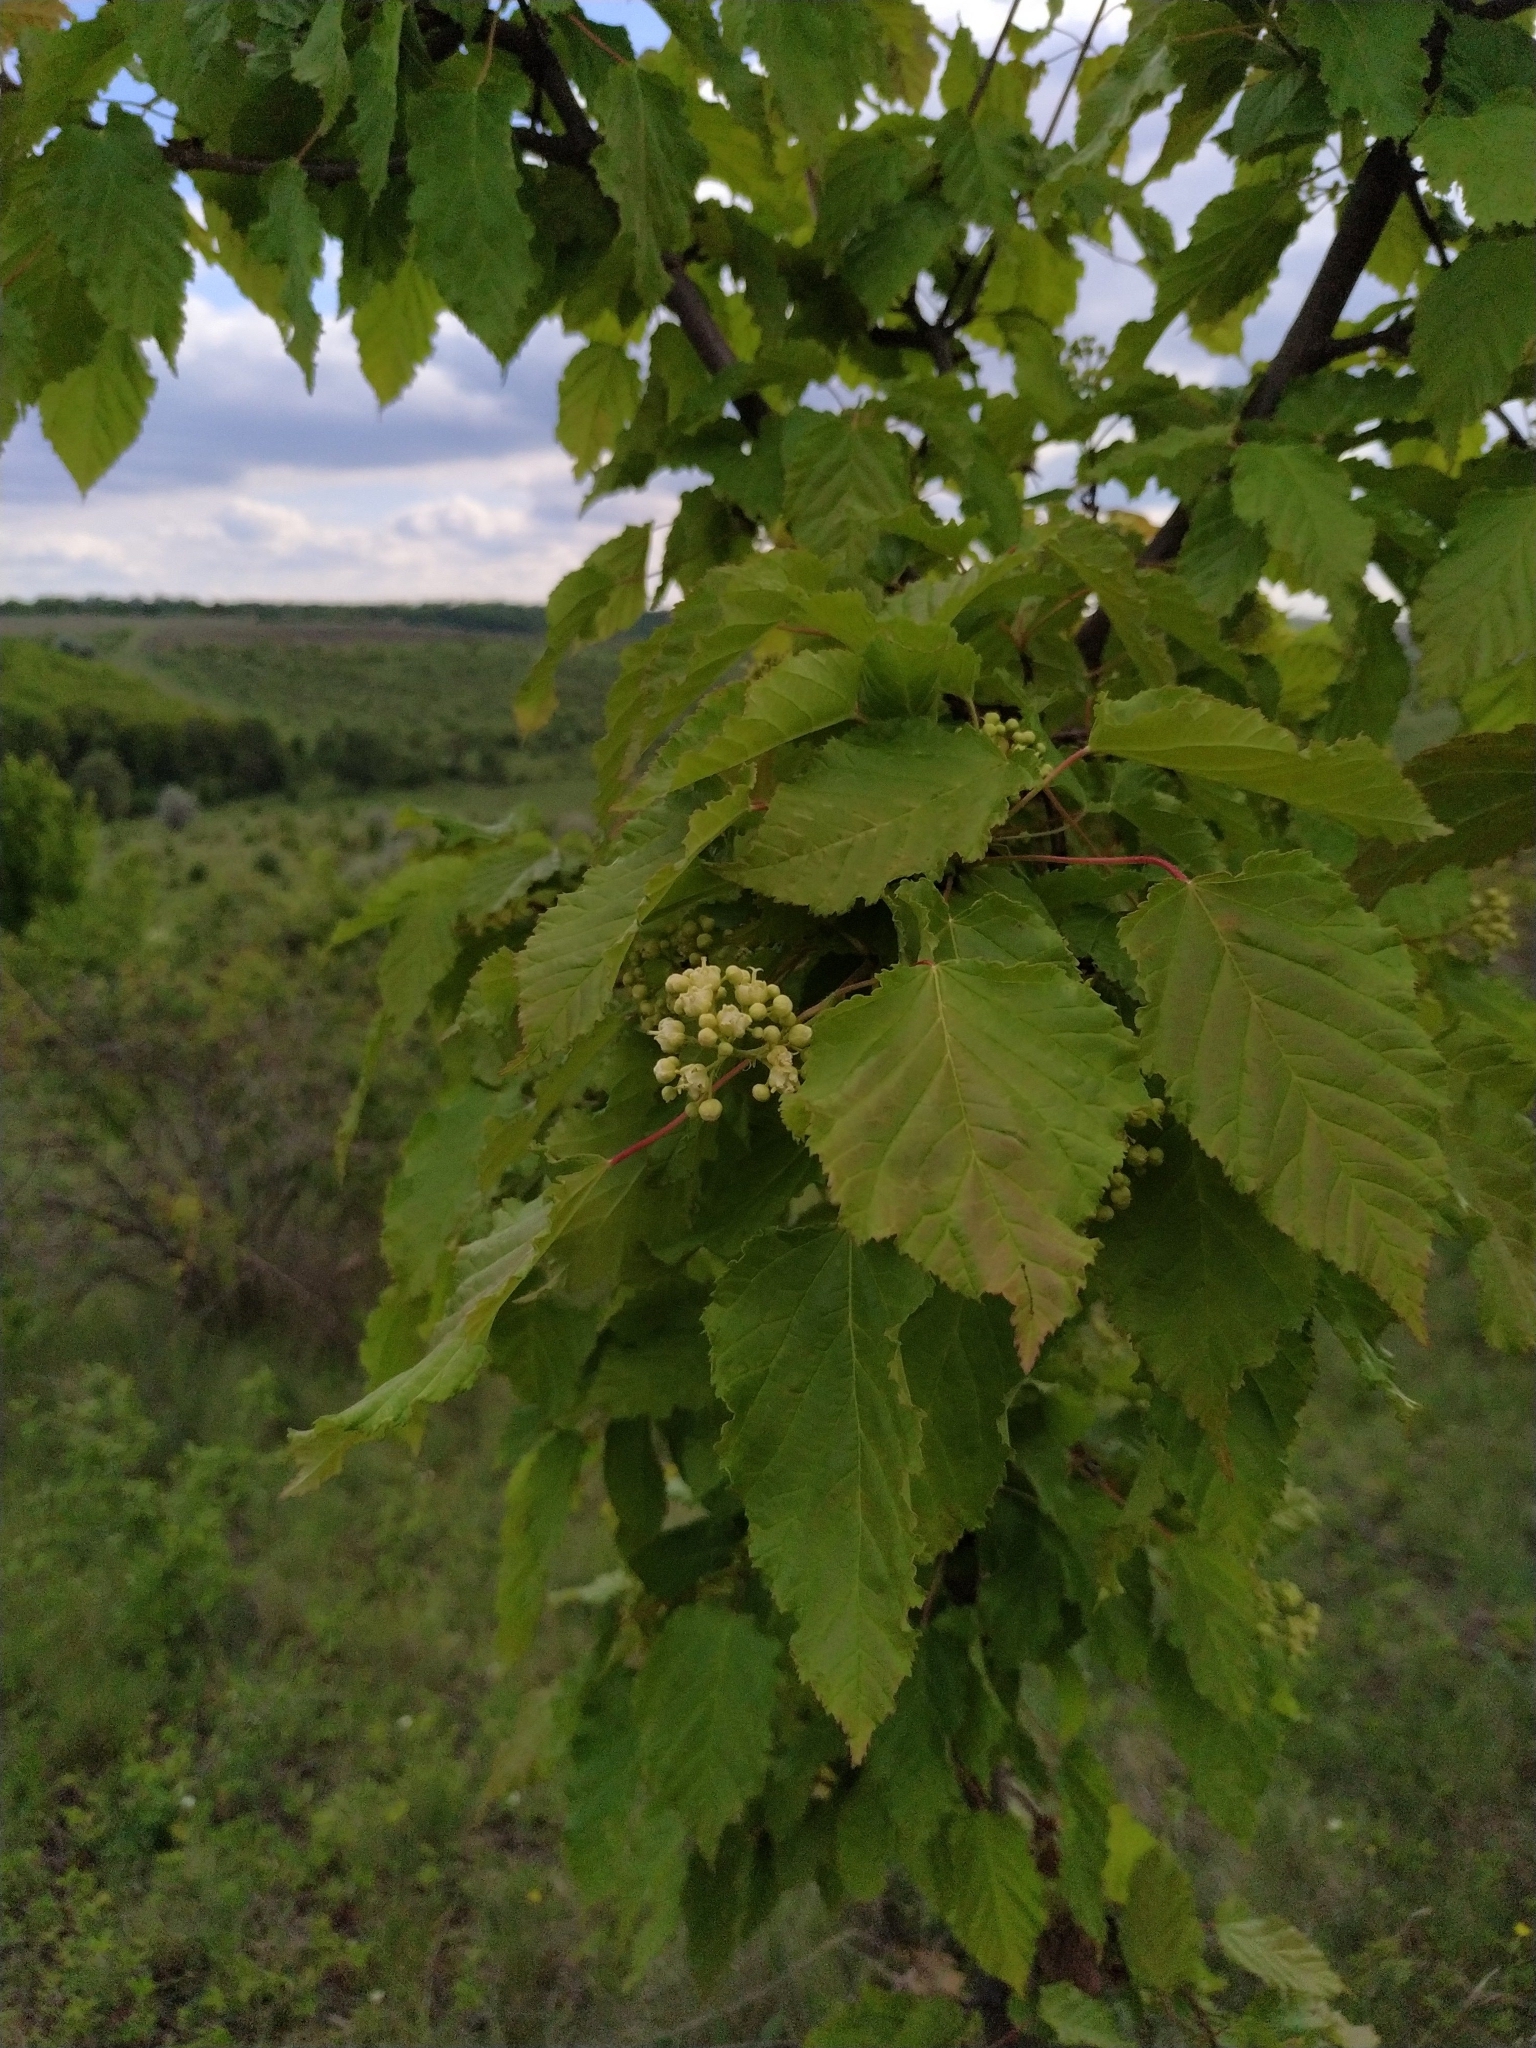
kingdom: Plantae
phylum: Tracheophyta
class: Magnoliopsida
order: Sapindales
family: Sapindaceae
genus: Acer
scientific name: Acer tataricum
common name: Tartar maple
